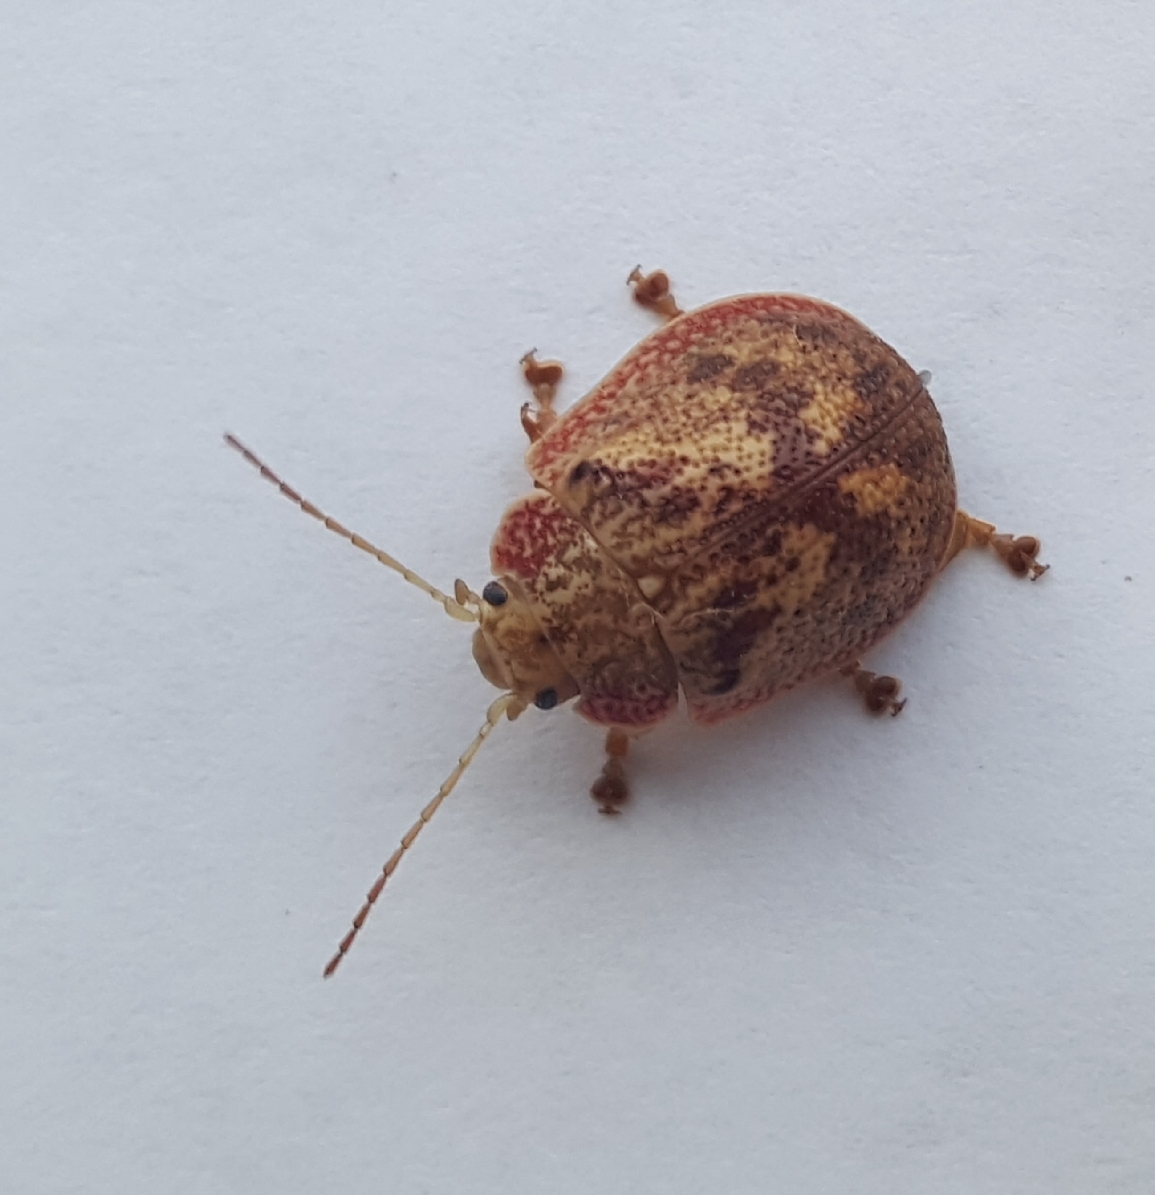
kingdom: Animalia
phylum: Arthropoda
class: Insecta
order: Coleoptera
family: Chrysomelidae
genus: Paropsis
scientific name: Paropsis charybdis
